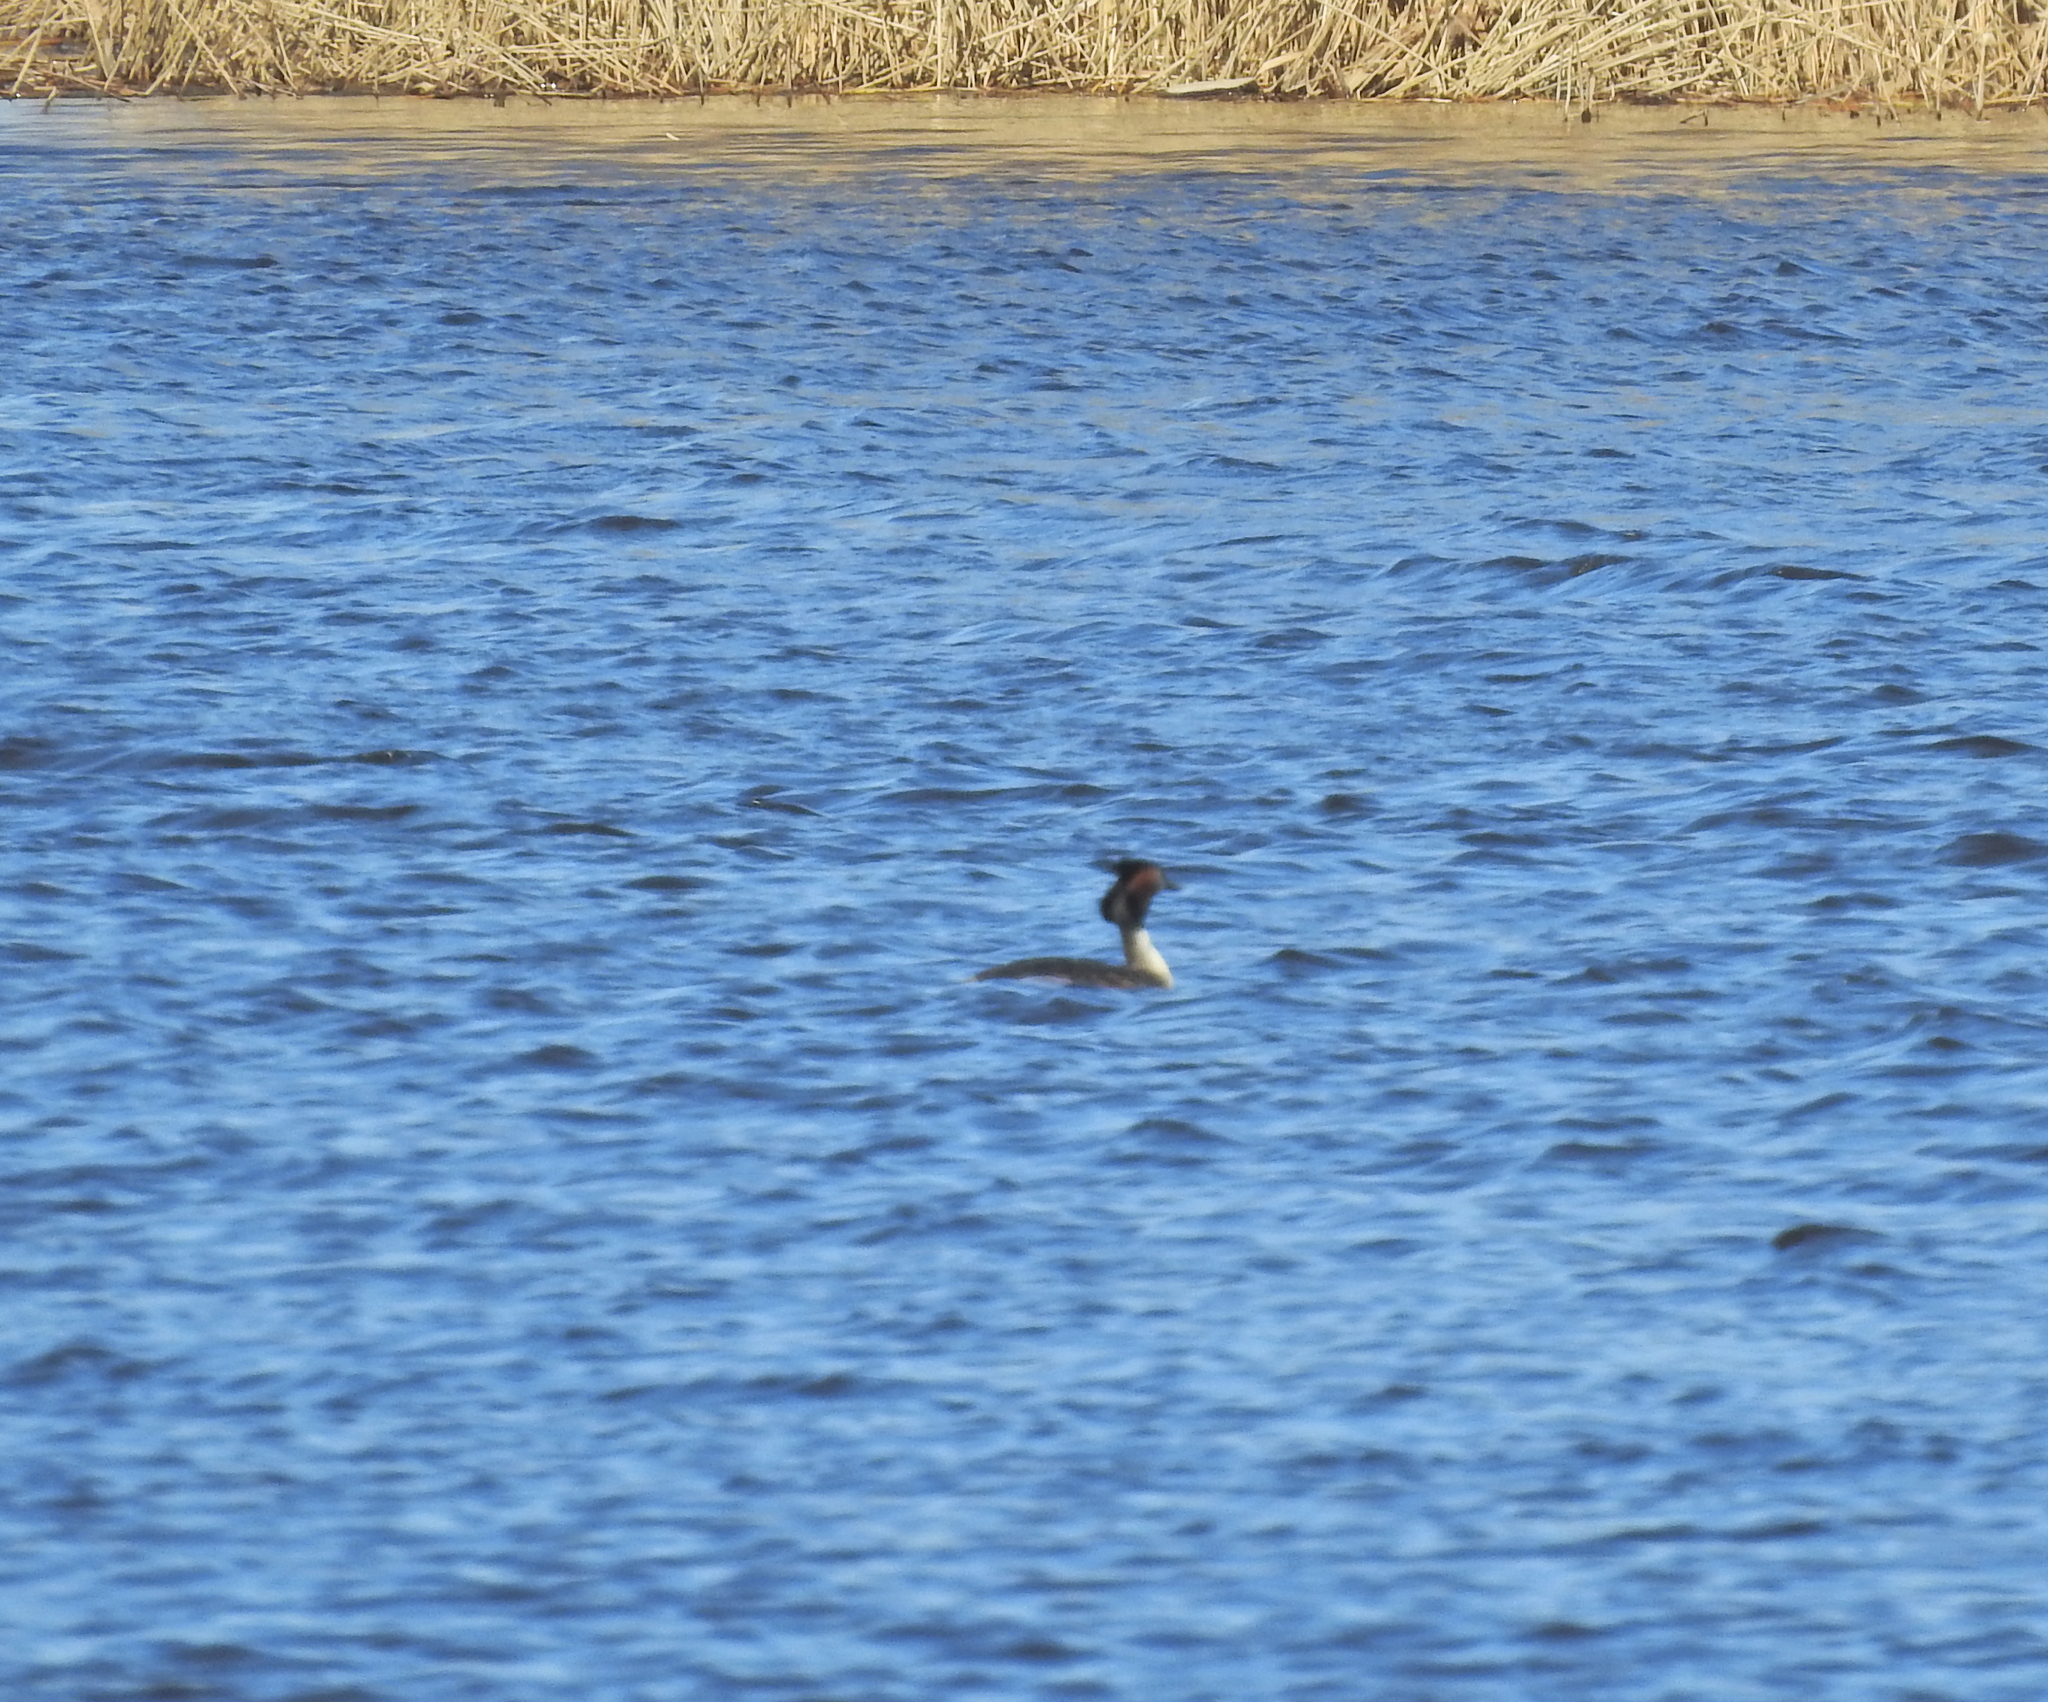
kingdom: Animalia
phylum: Chordata
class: Aves
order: Podicipediformes
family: Podicipedidae
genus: Podiceps
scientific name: Podiceps cristatus
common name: Great crested grebe
